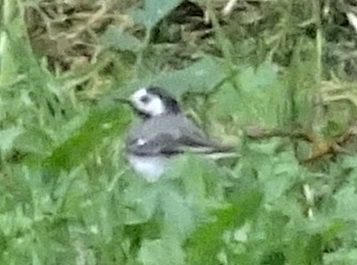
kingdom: Animalia
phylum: Chordata
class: Aves
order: Passeriformes
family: Motacillidae
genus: Motacilla
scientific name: Motacilla alba
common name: White wagtail
